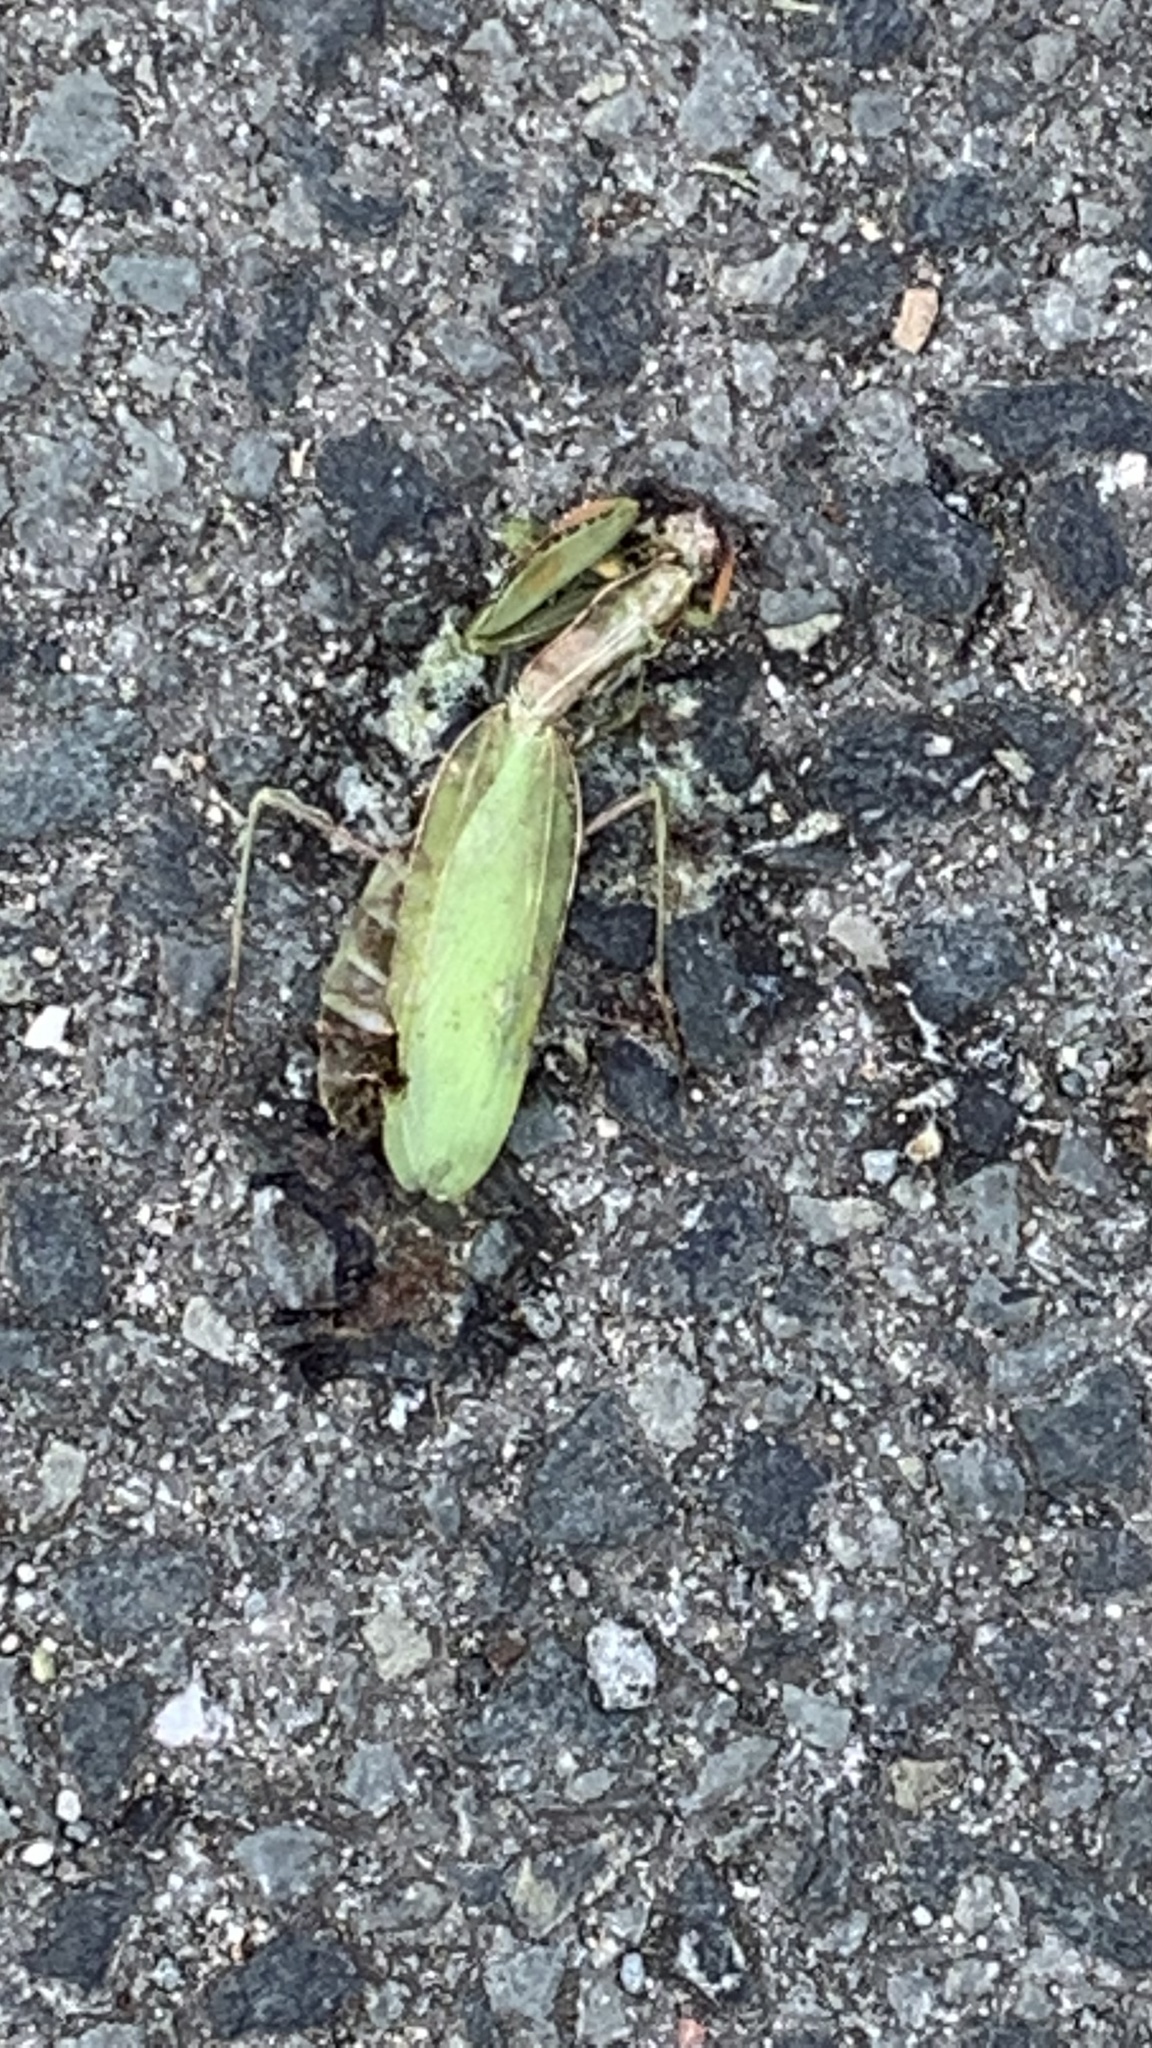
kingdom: Animalia
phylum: Arthropoda
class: Insecta
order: Mantodea
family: Mantidae
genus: Mantis
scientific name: Mantis religiosa
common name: Praying mantis
